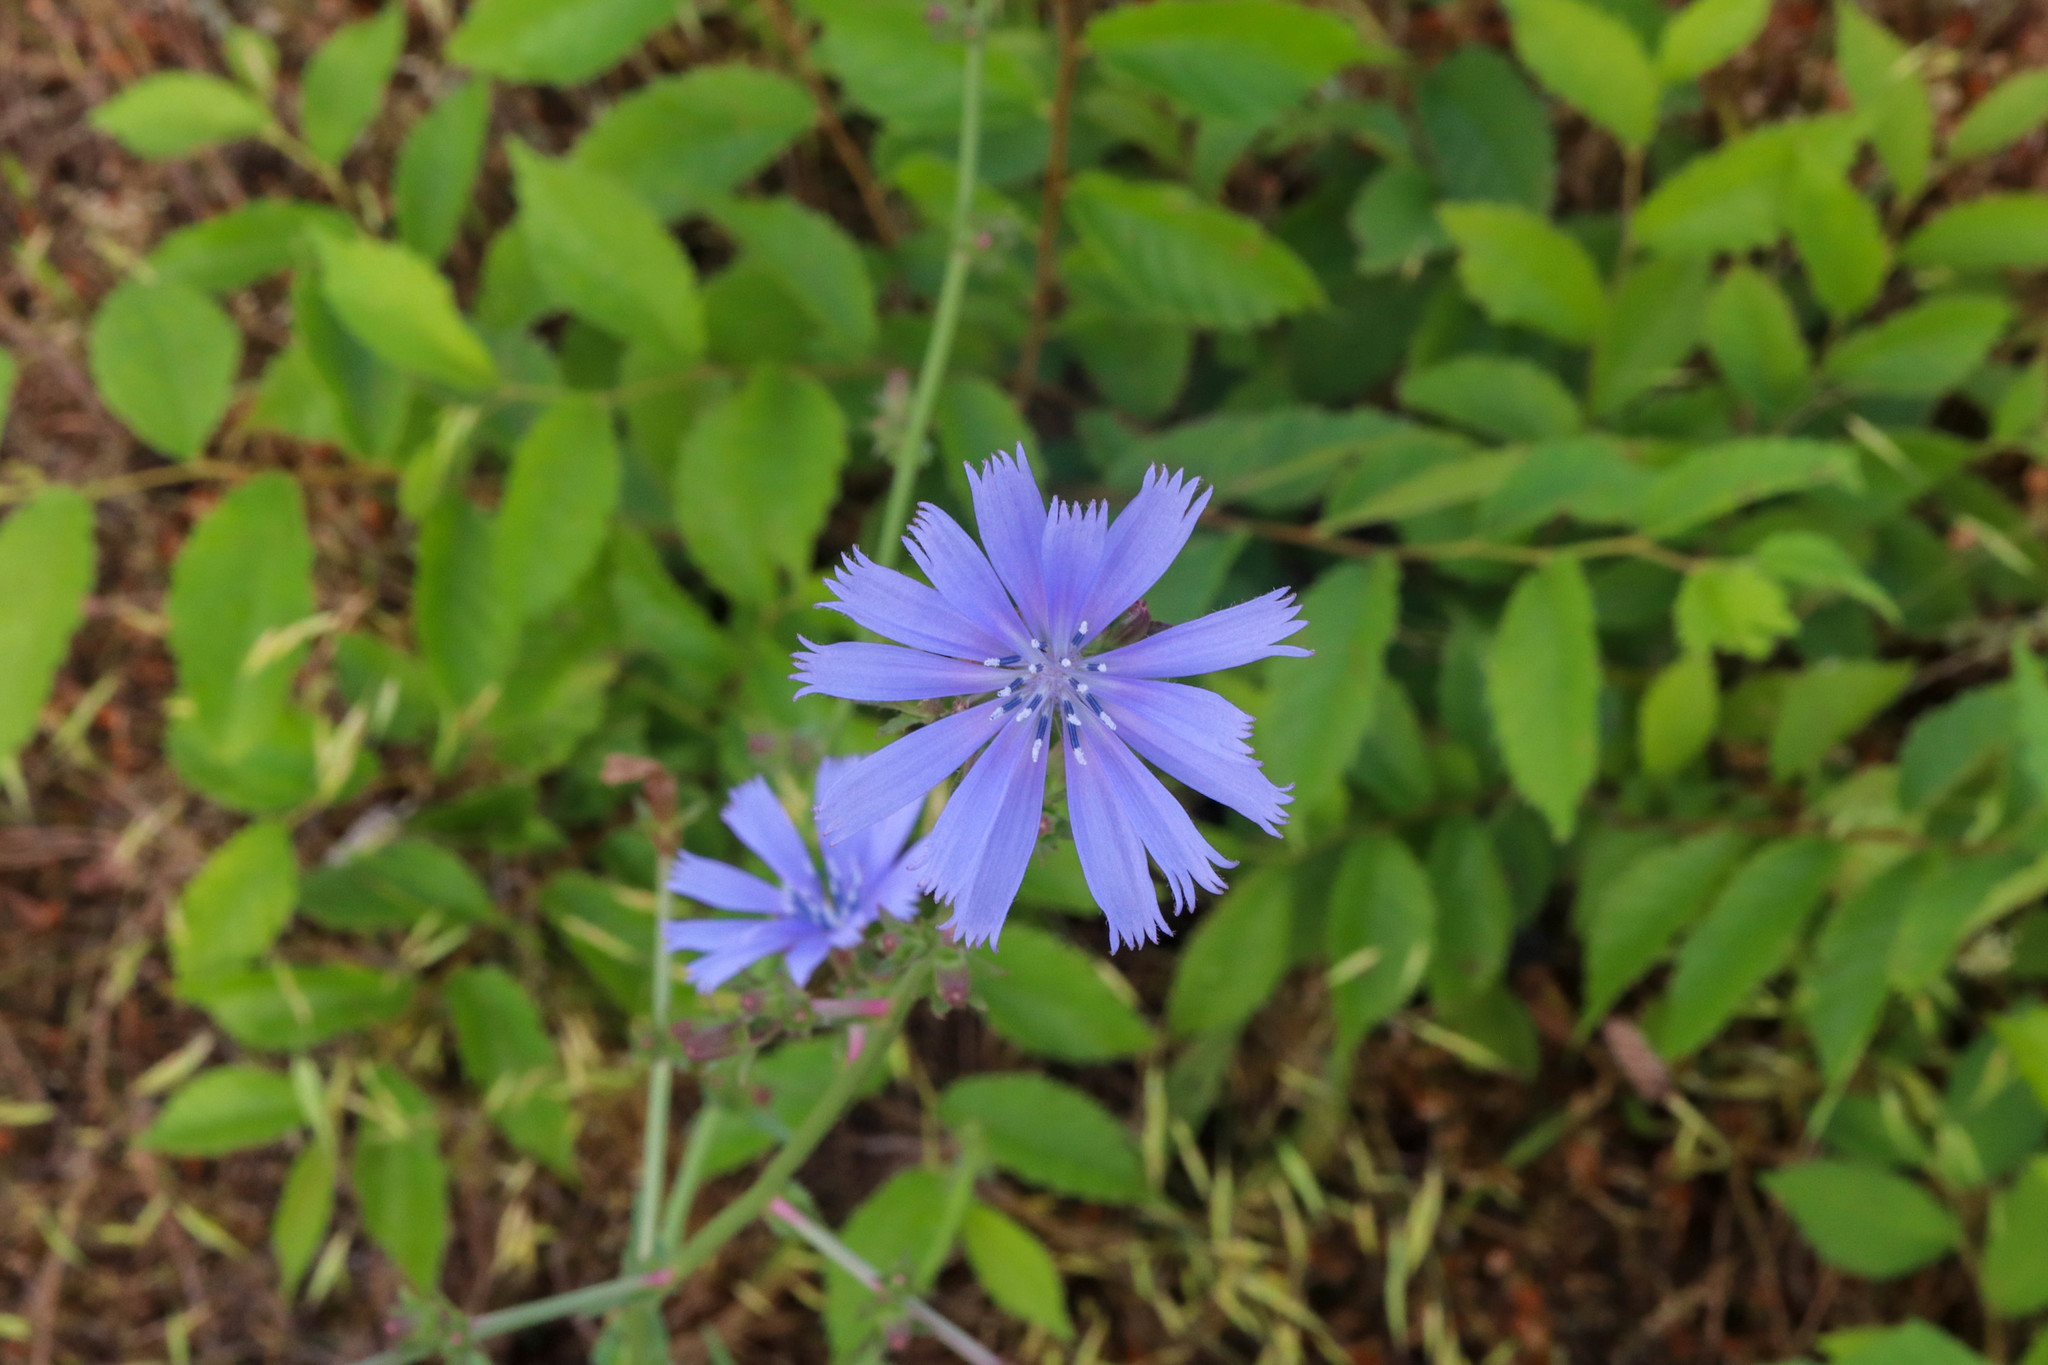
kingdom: Plantae
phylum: Tracheophyta
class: Magnoliopsida
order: Asterales
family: Asteraceae
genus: Cichorium
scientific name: Cichorium intybus
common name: Chicory
